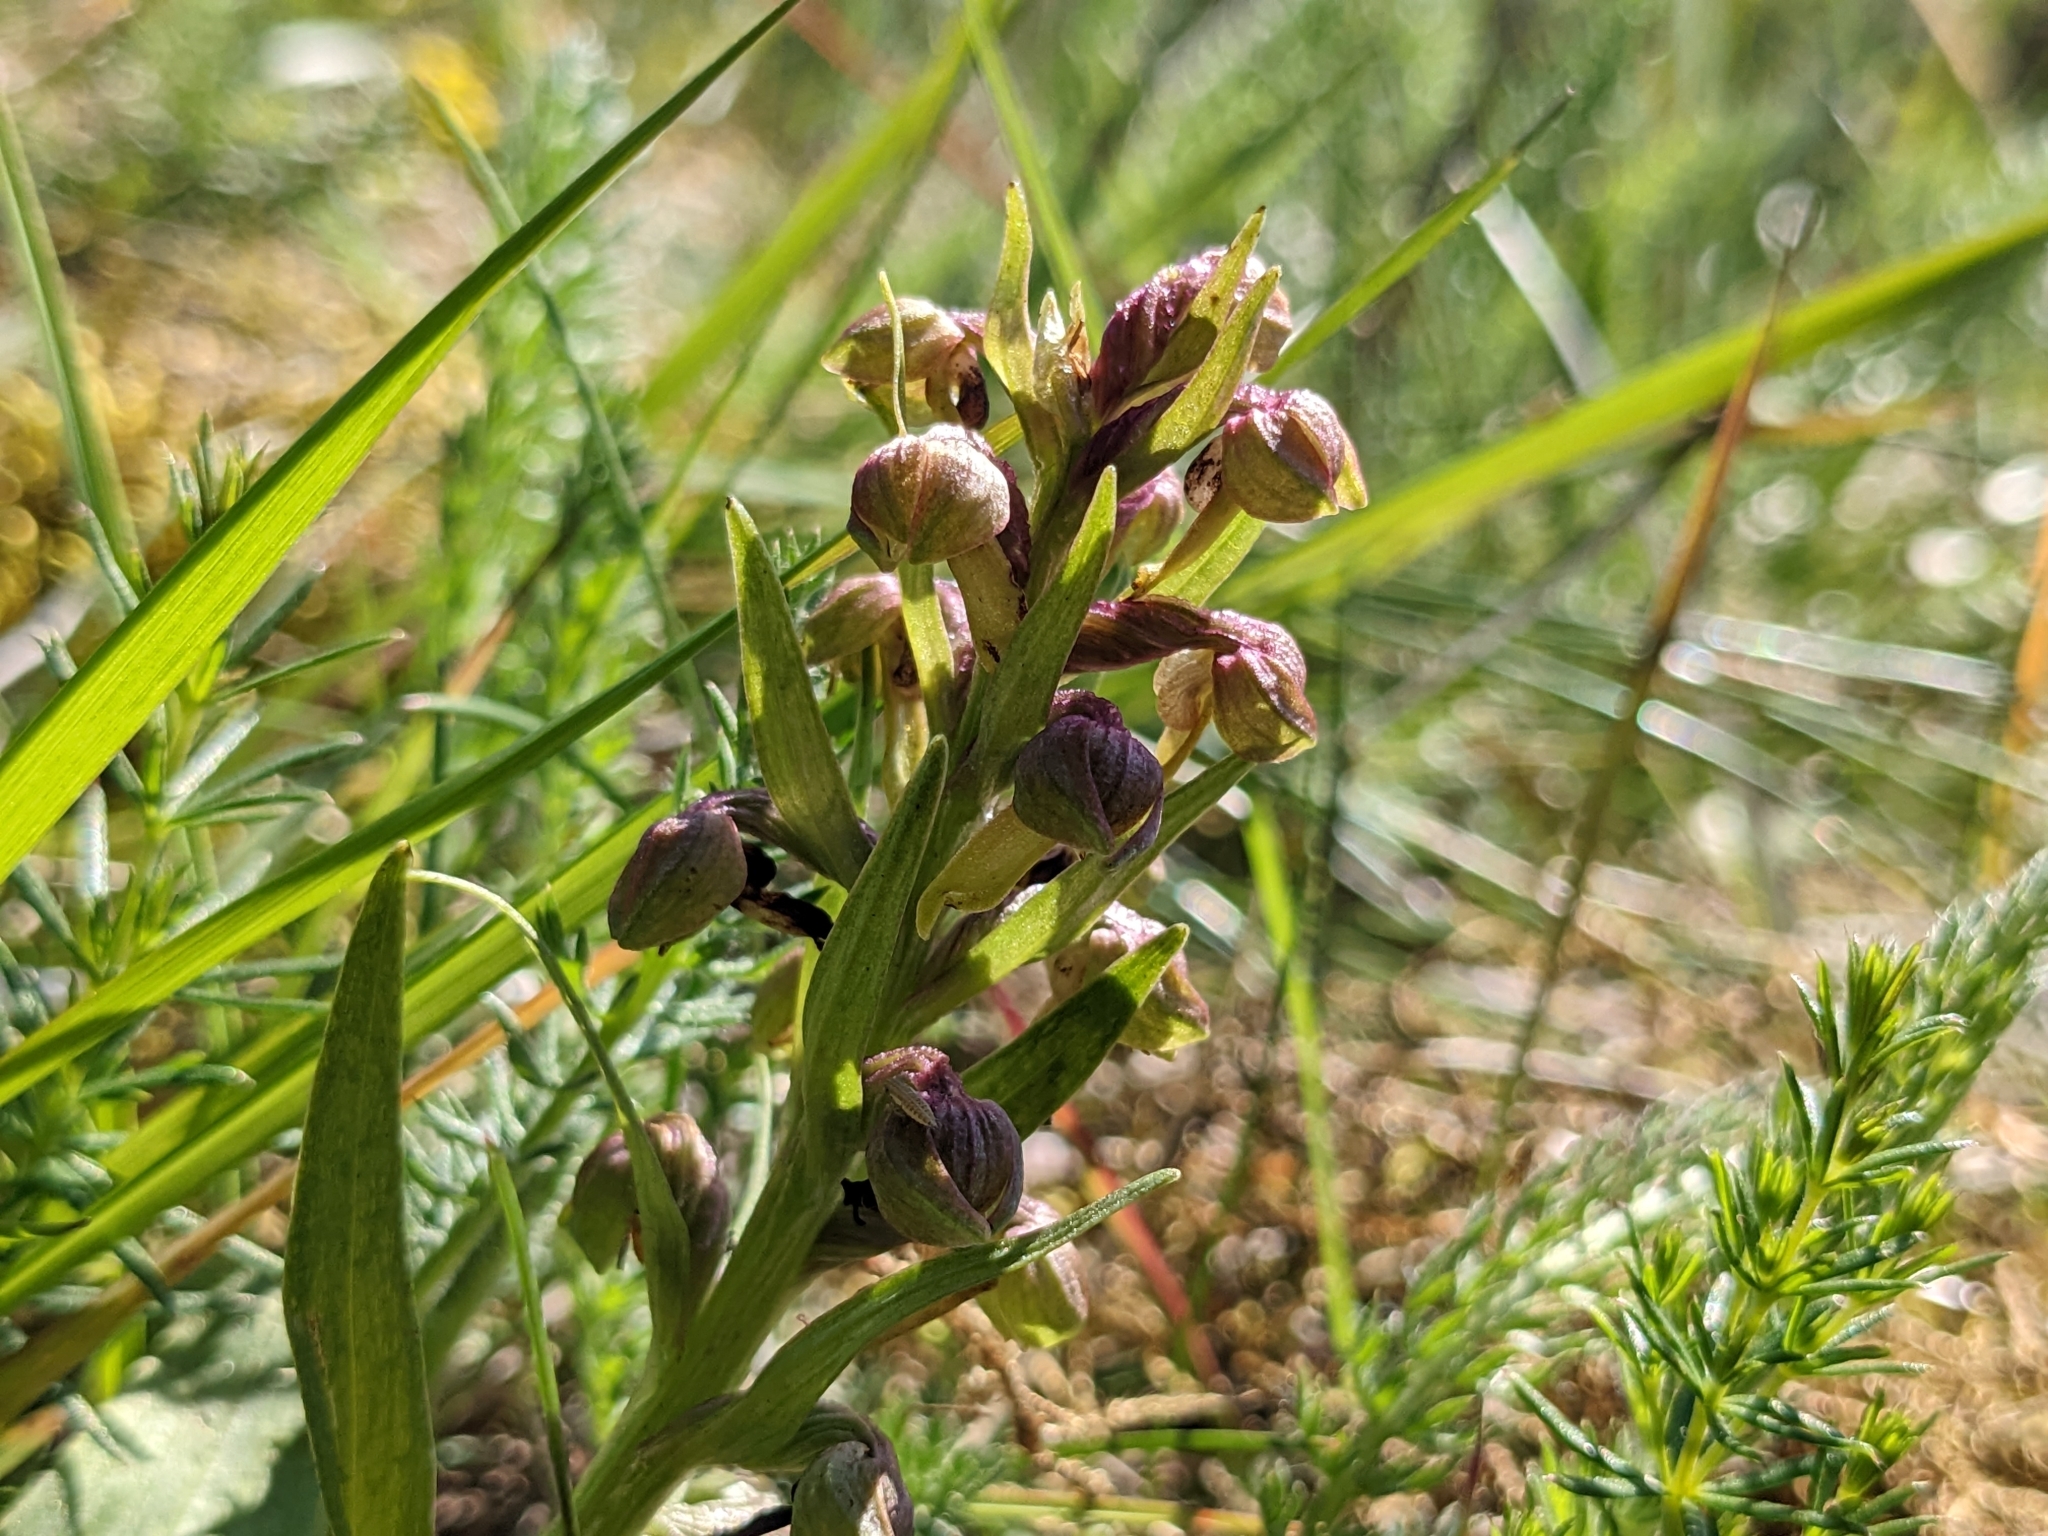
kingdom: Plantae
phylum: Tracheophyta
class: Liliopsida
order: Asparagales
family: Orchidaceae
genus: Dactylorhiza
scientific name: Dactylorhiza viridis
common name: Longbract frog orchid
